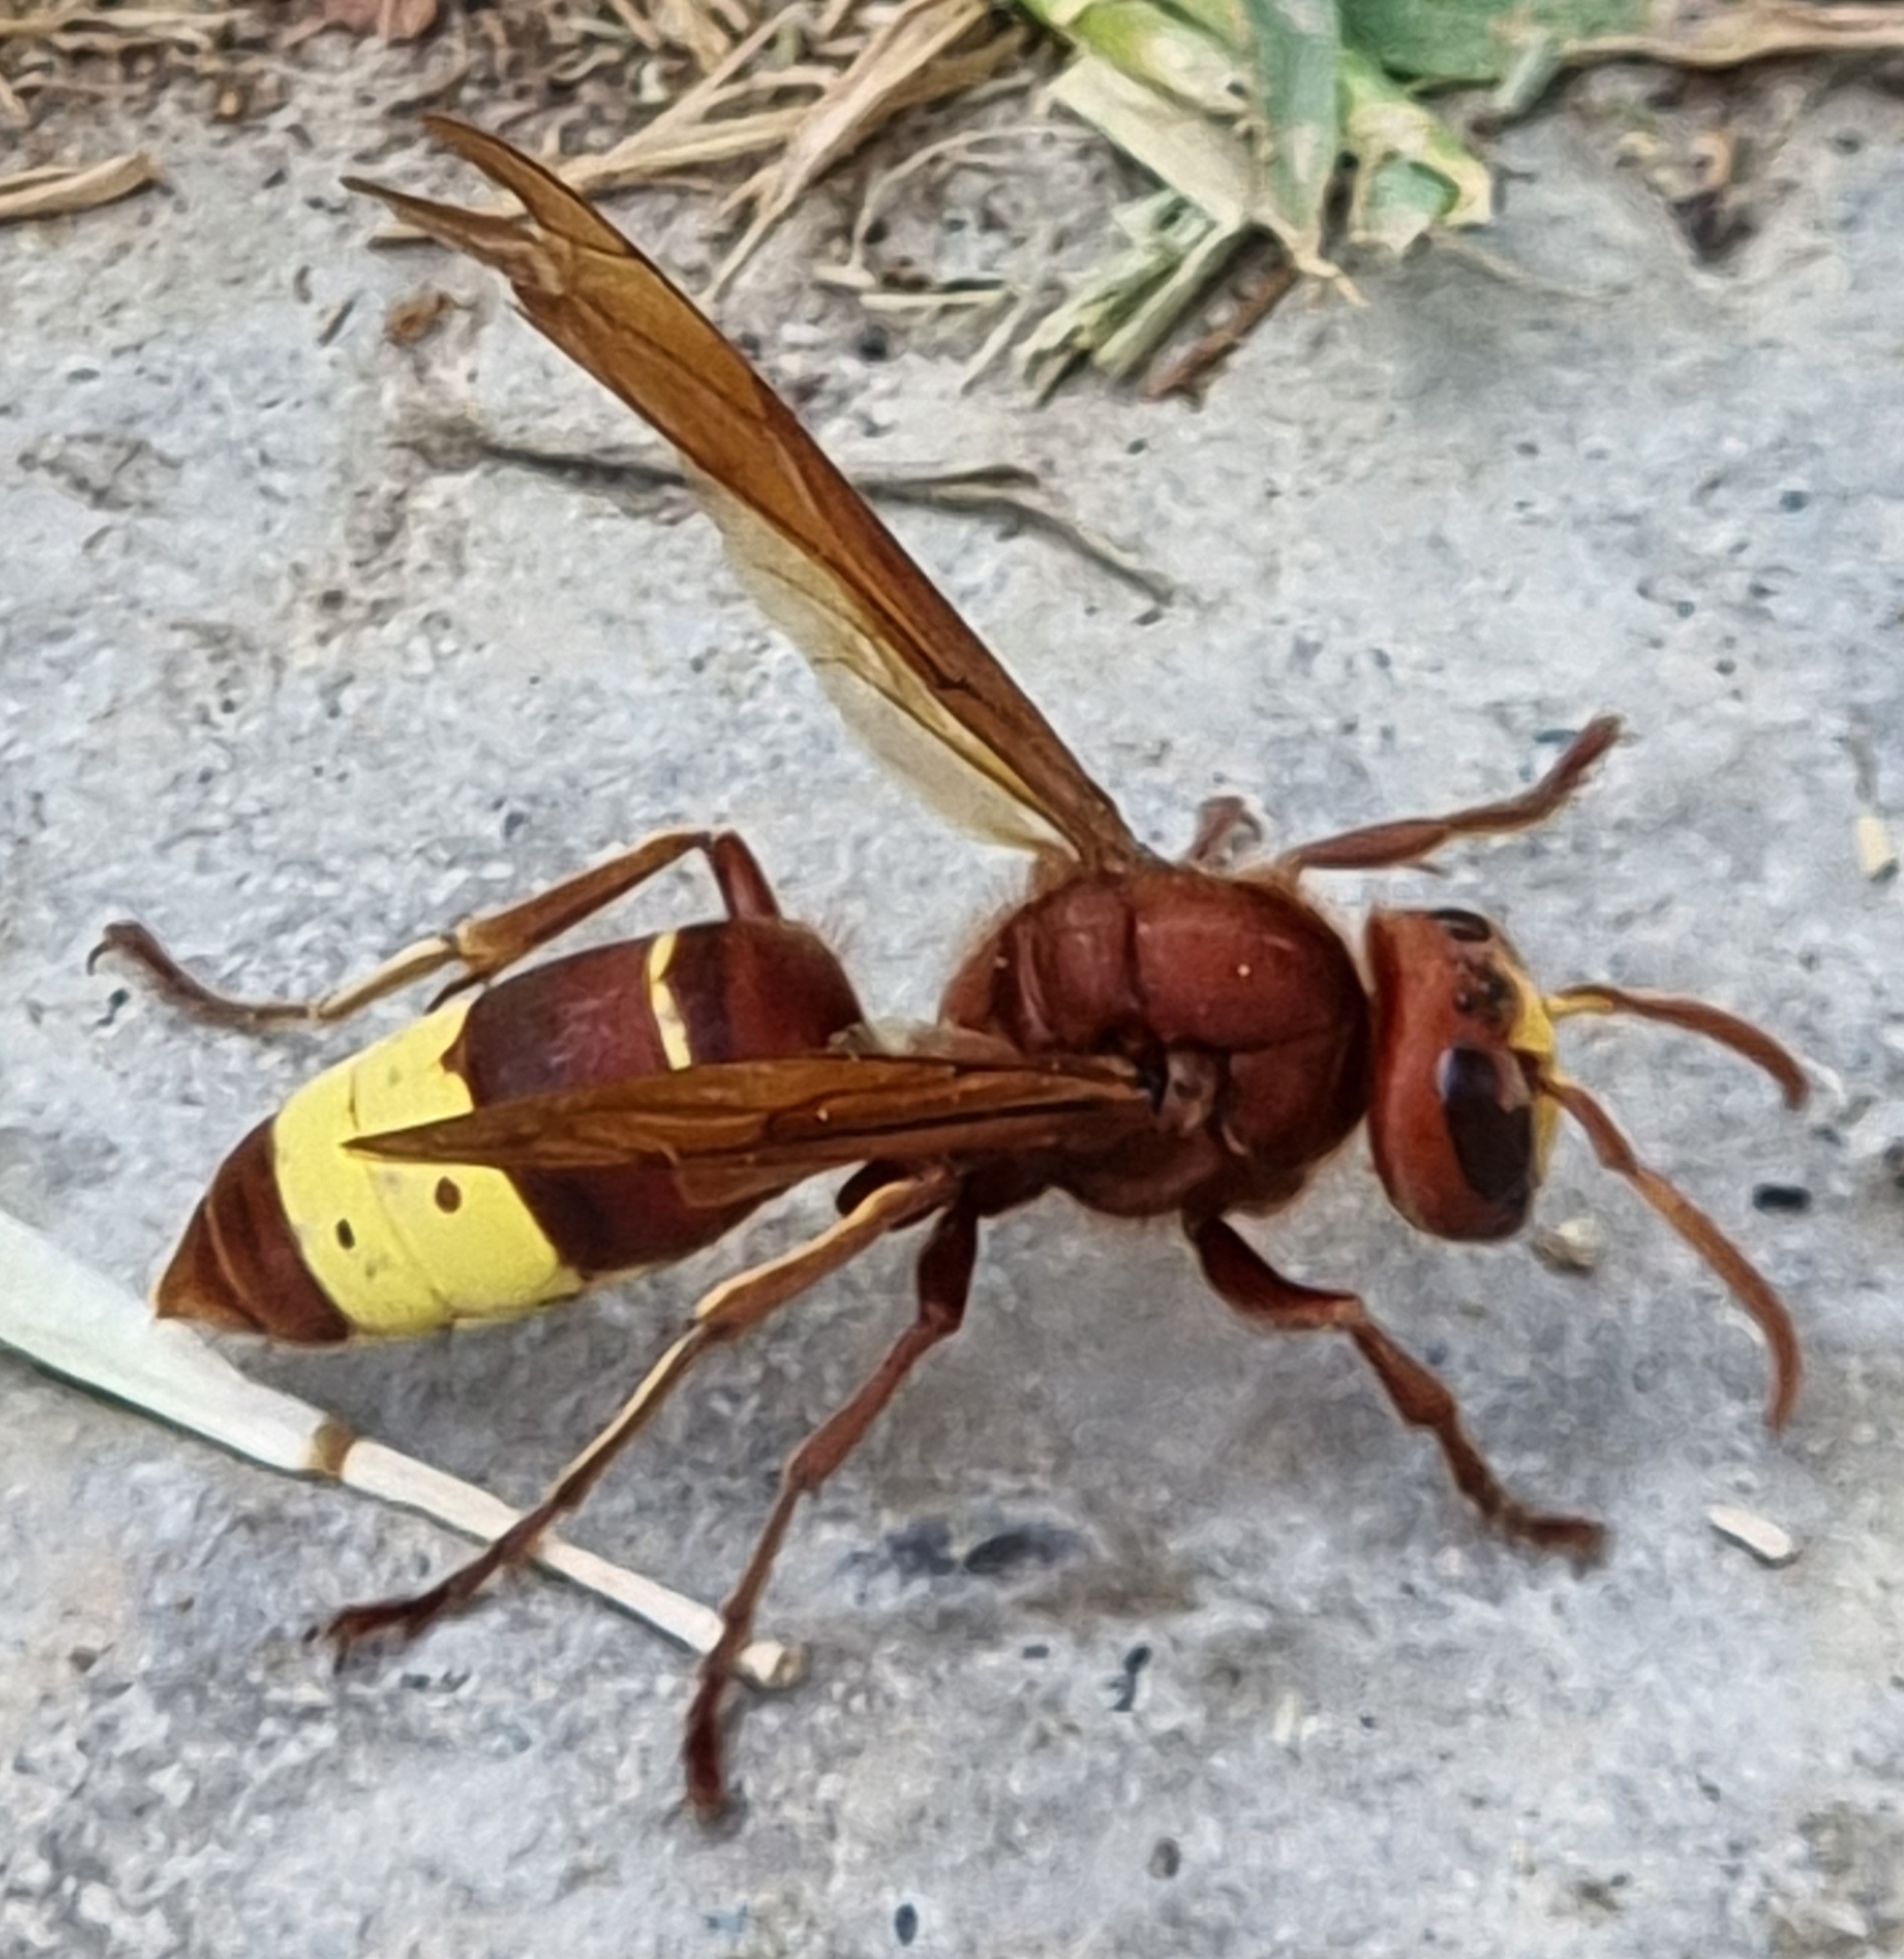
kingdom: Animalia
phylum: Arthropoda
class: Insecta
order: Hymenoptera
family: Vespidae
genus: Vespa
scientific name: Vespa orientalis
